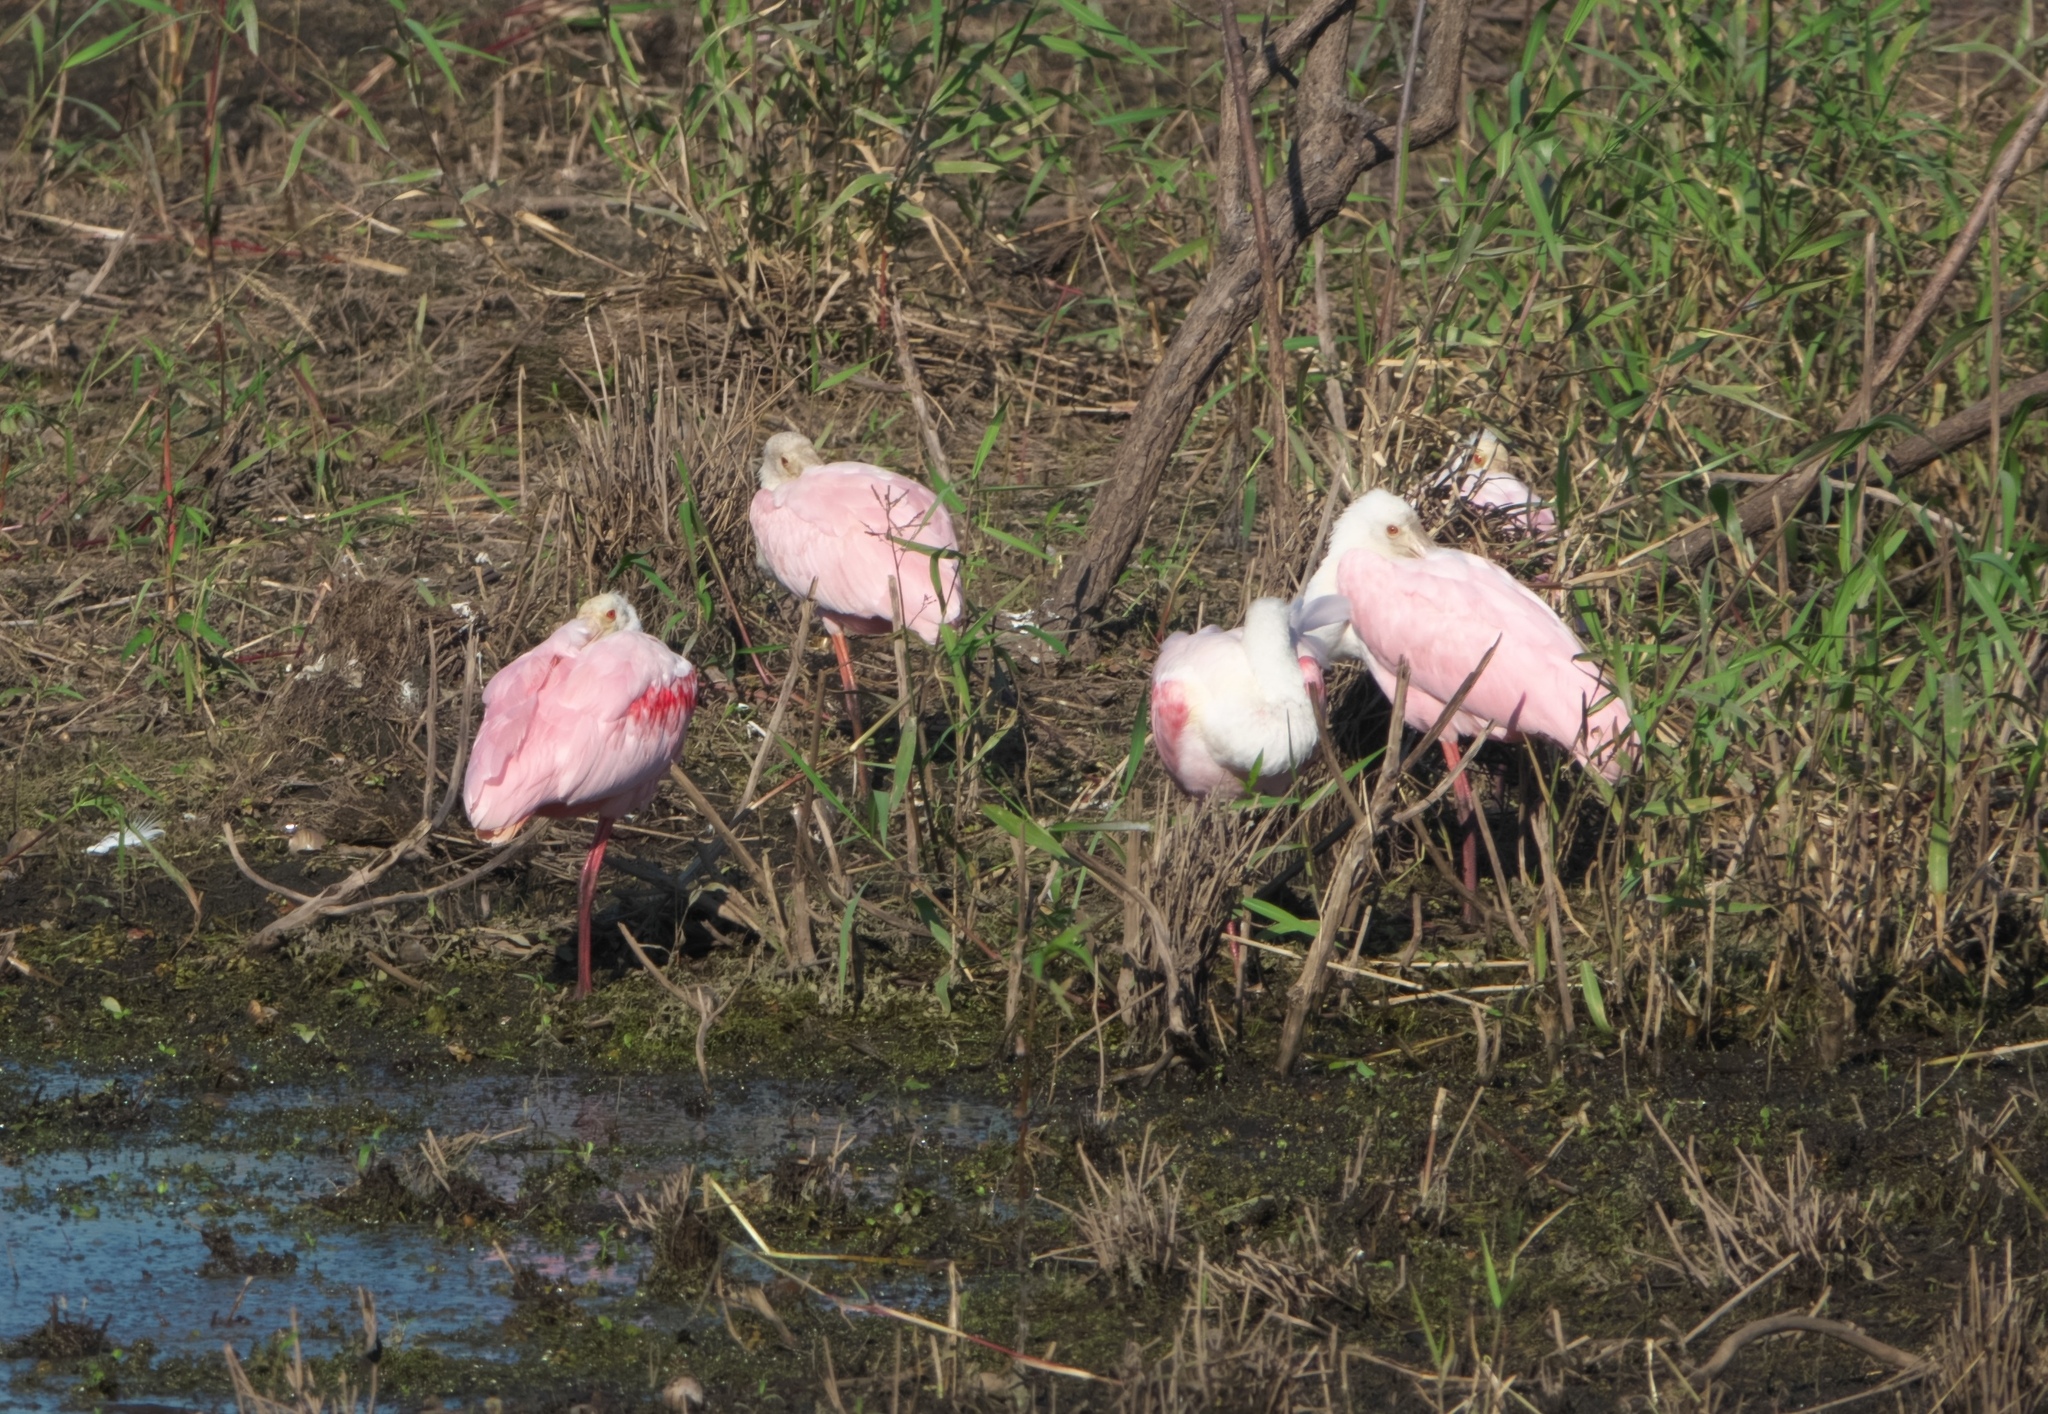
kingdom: Animalia
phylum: Chordata
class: Aves
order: Pelecaniformes
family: Threskiornithidae
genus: Platalea
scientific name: Platalea ajaja
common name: Roseate spoonbill
